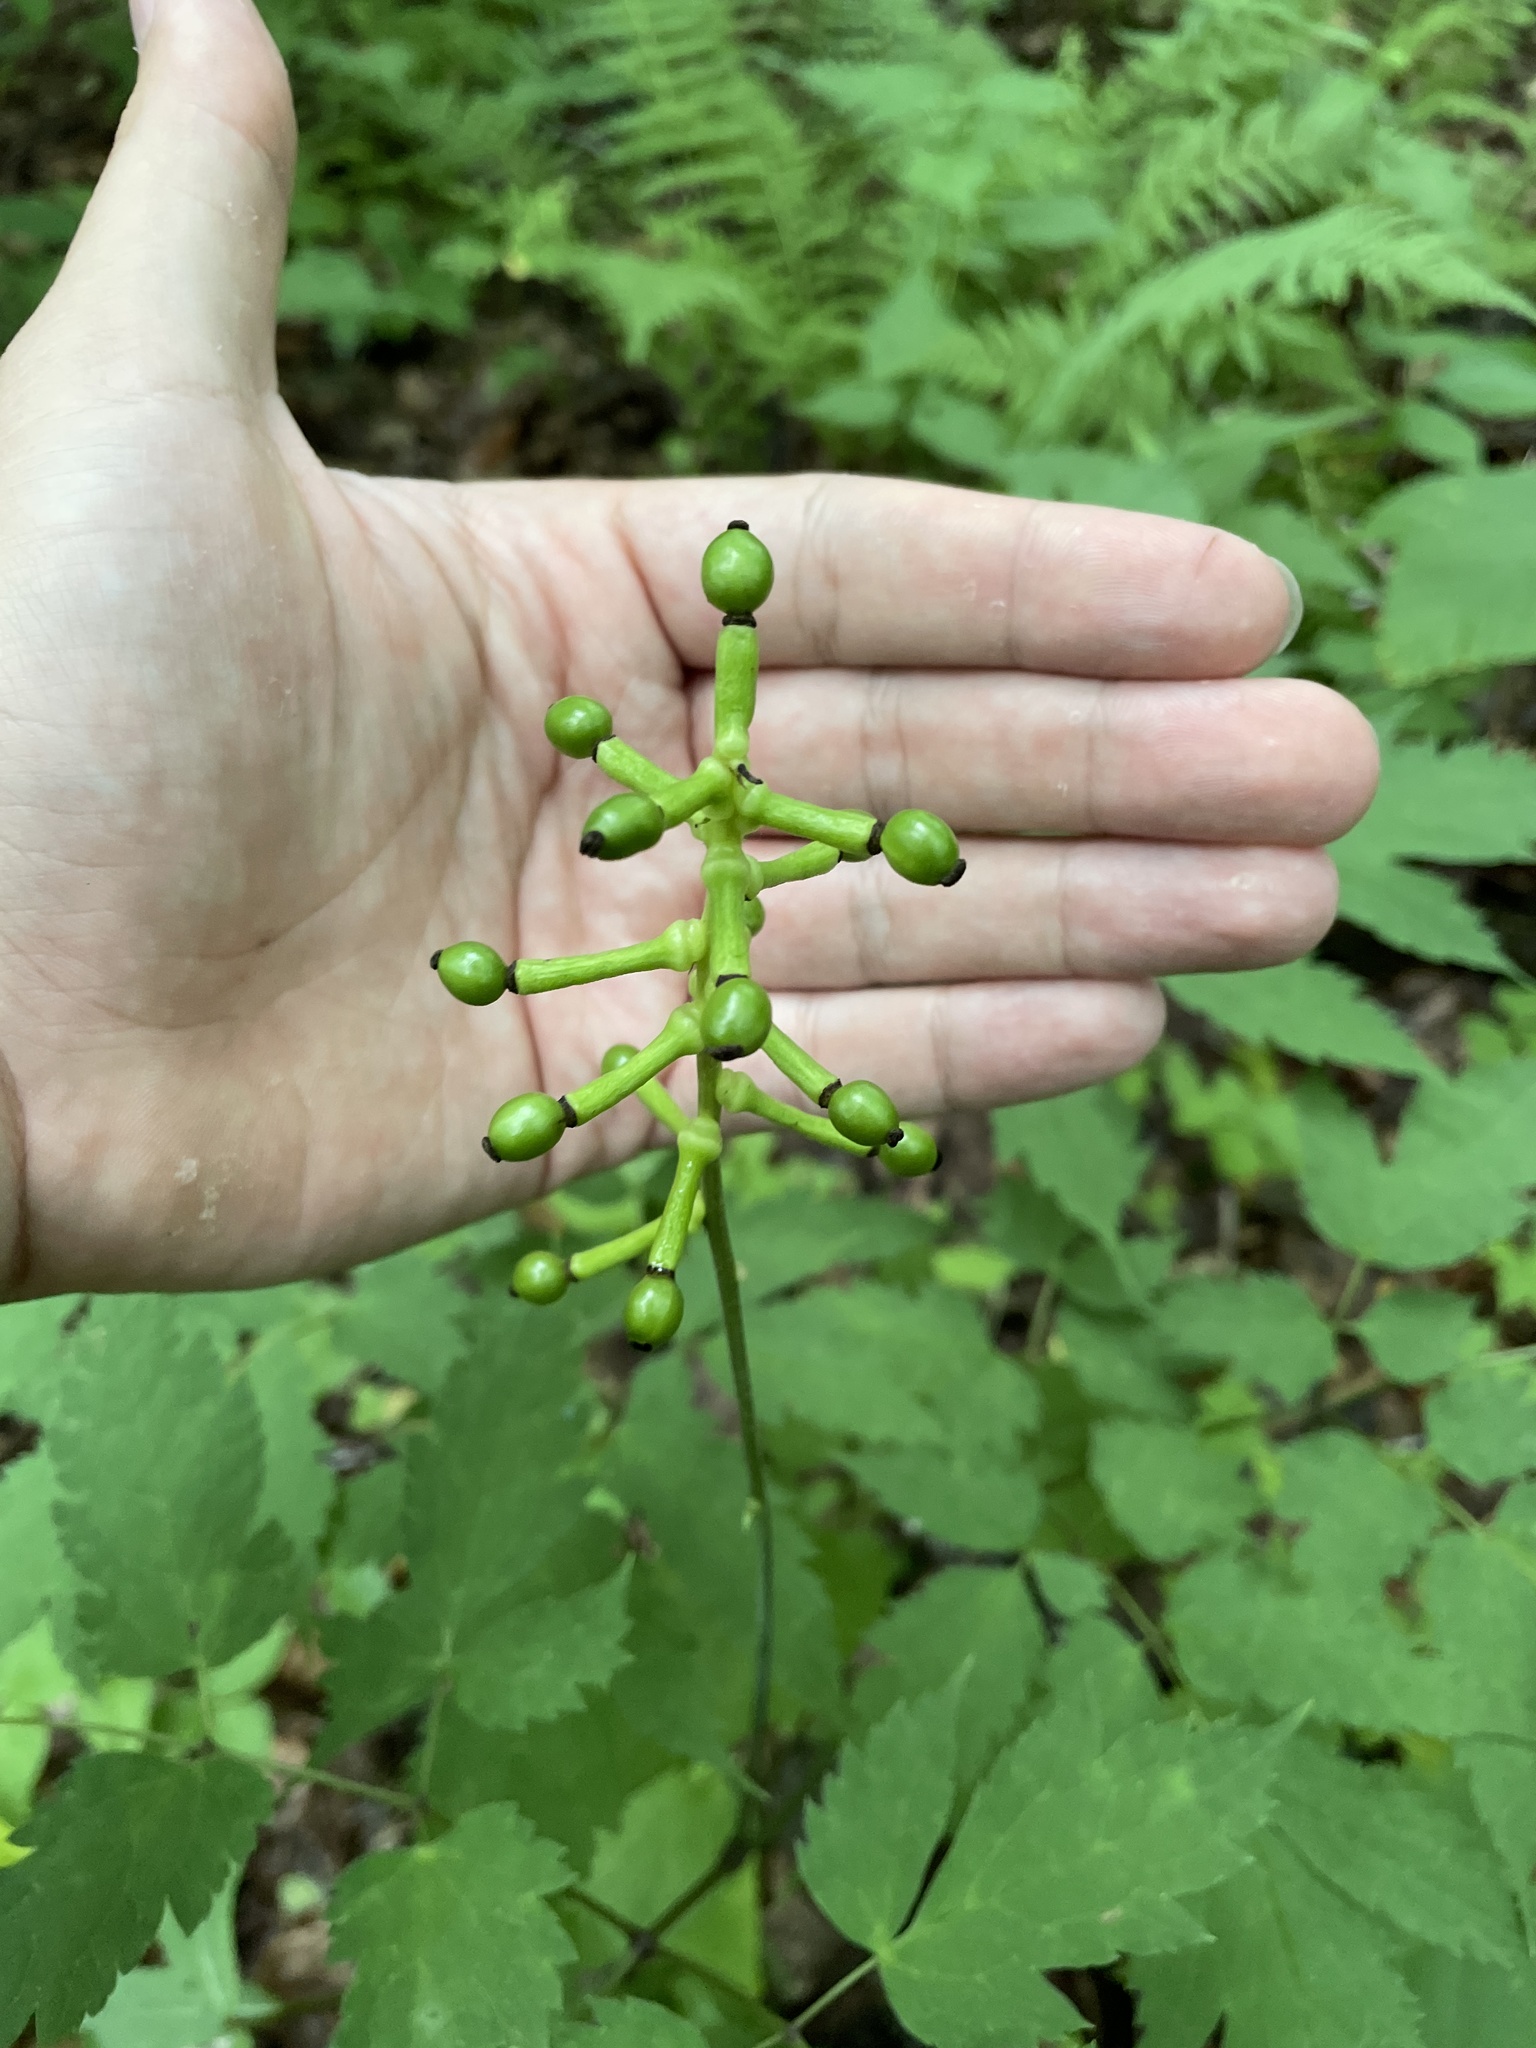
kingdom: Plantae
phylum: Tracheophyta
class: Magnoliopsida
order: Ranunculales
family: Ranunculaceae
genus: Actaea
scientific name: Actaea pachypoda
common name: Doll's-eyes
